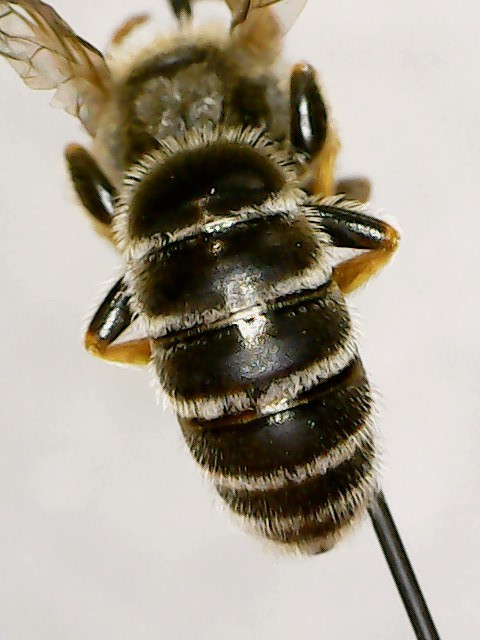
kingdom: Animalia
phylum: Arthropoda
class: Insecta
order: Hymenoptera
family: Halictidae
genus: Halictus
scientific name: Halictus ligatus
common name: Ligated furrow bee
